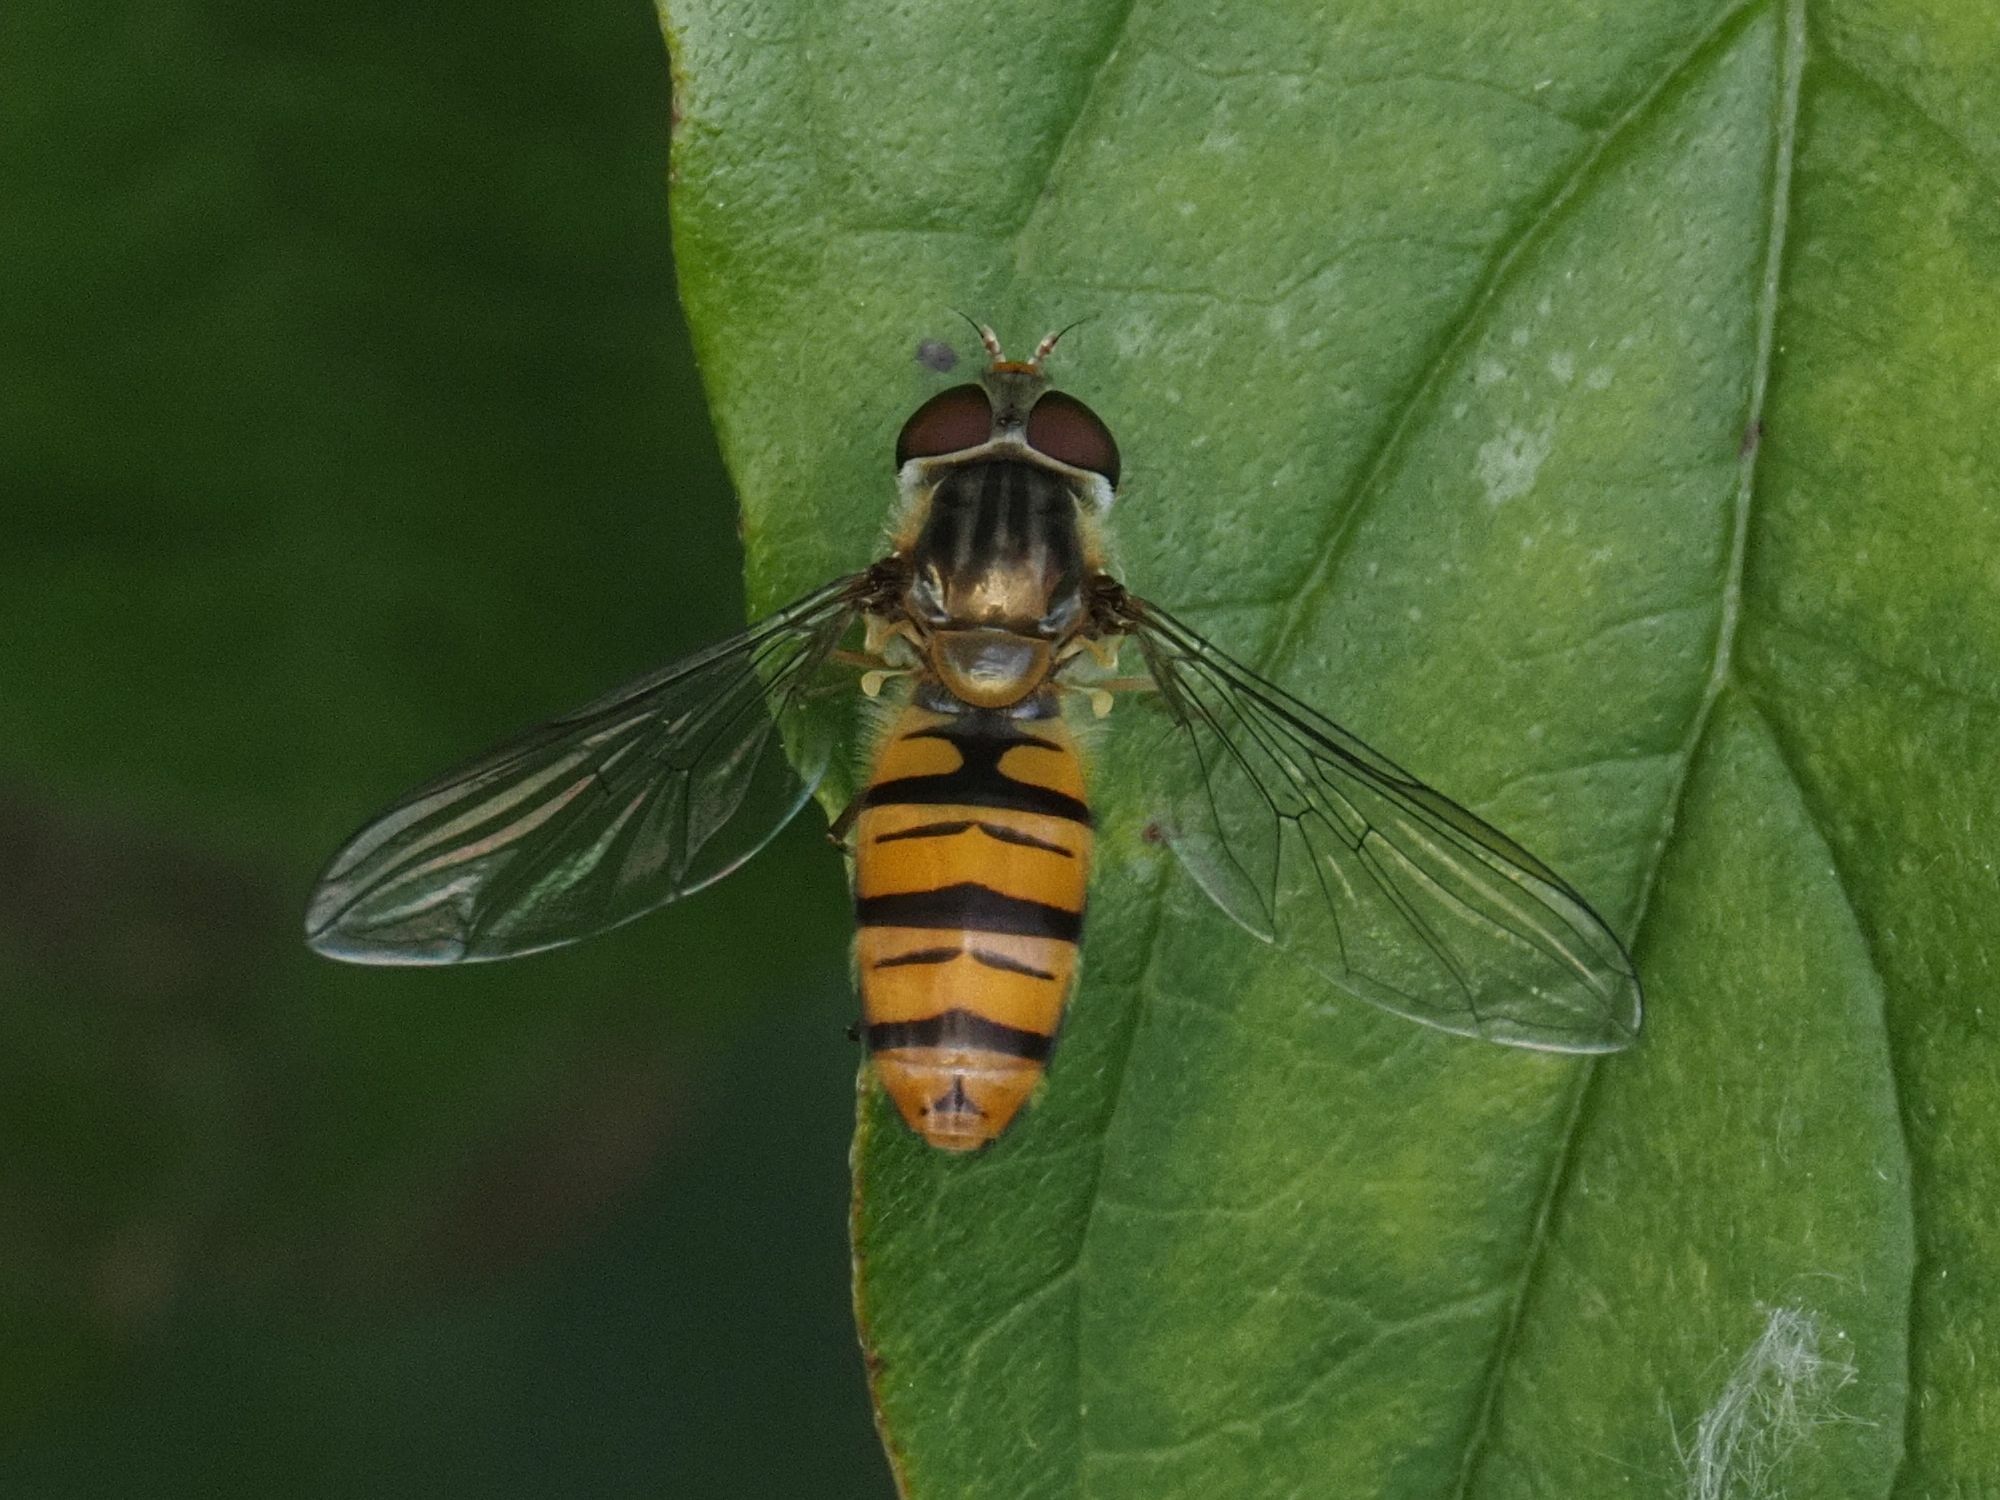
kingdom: Animalia
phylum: Arthropoda
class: Insecta
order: Diptera
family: Syrphidae
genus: Episyrphus
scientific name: Episyrphus balteatus
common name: Marmalade hoverfly
